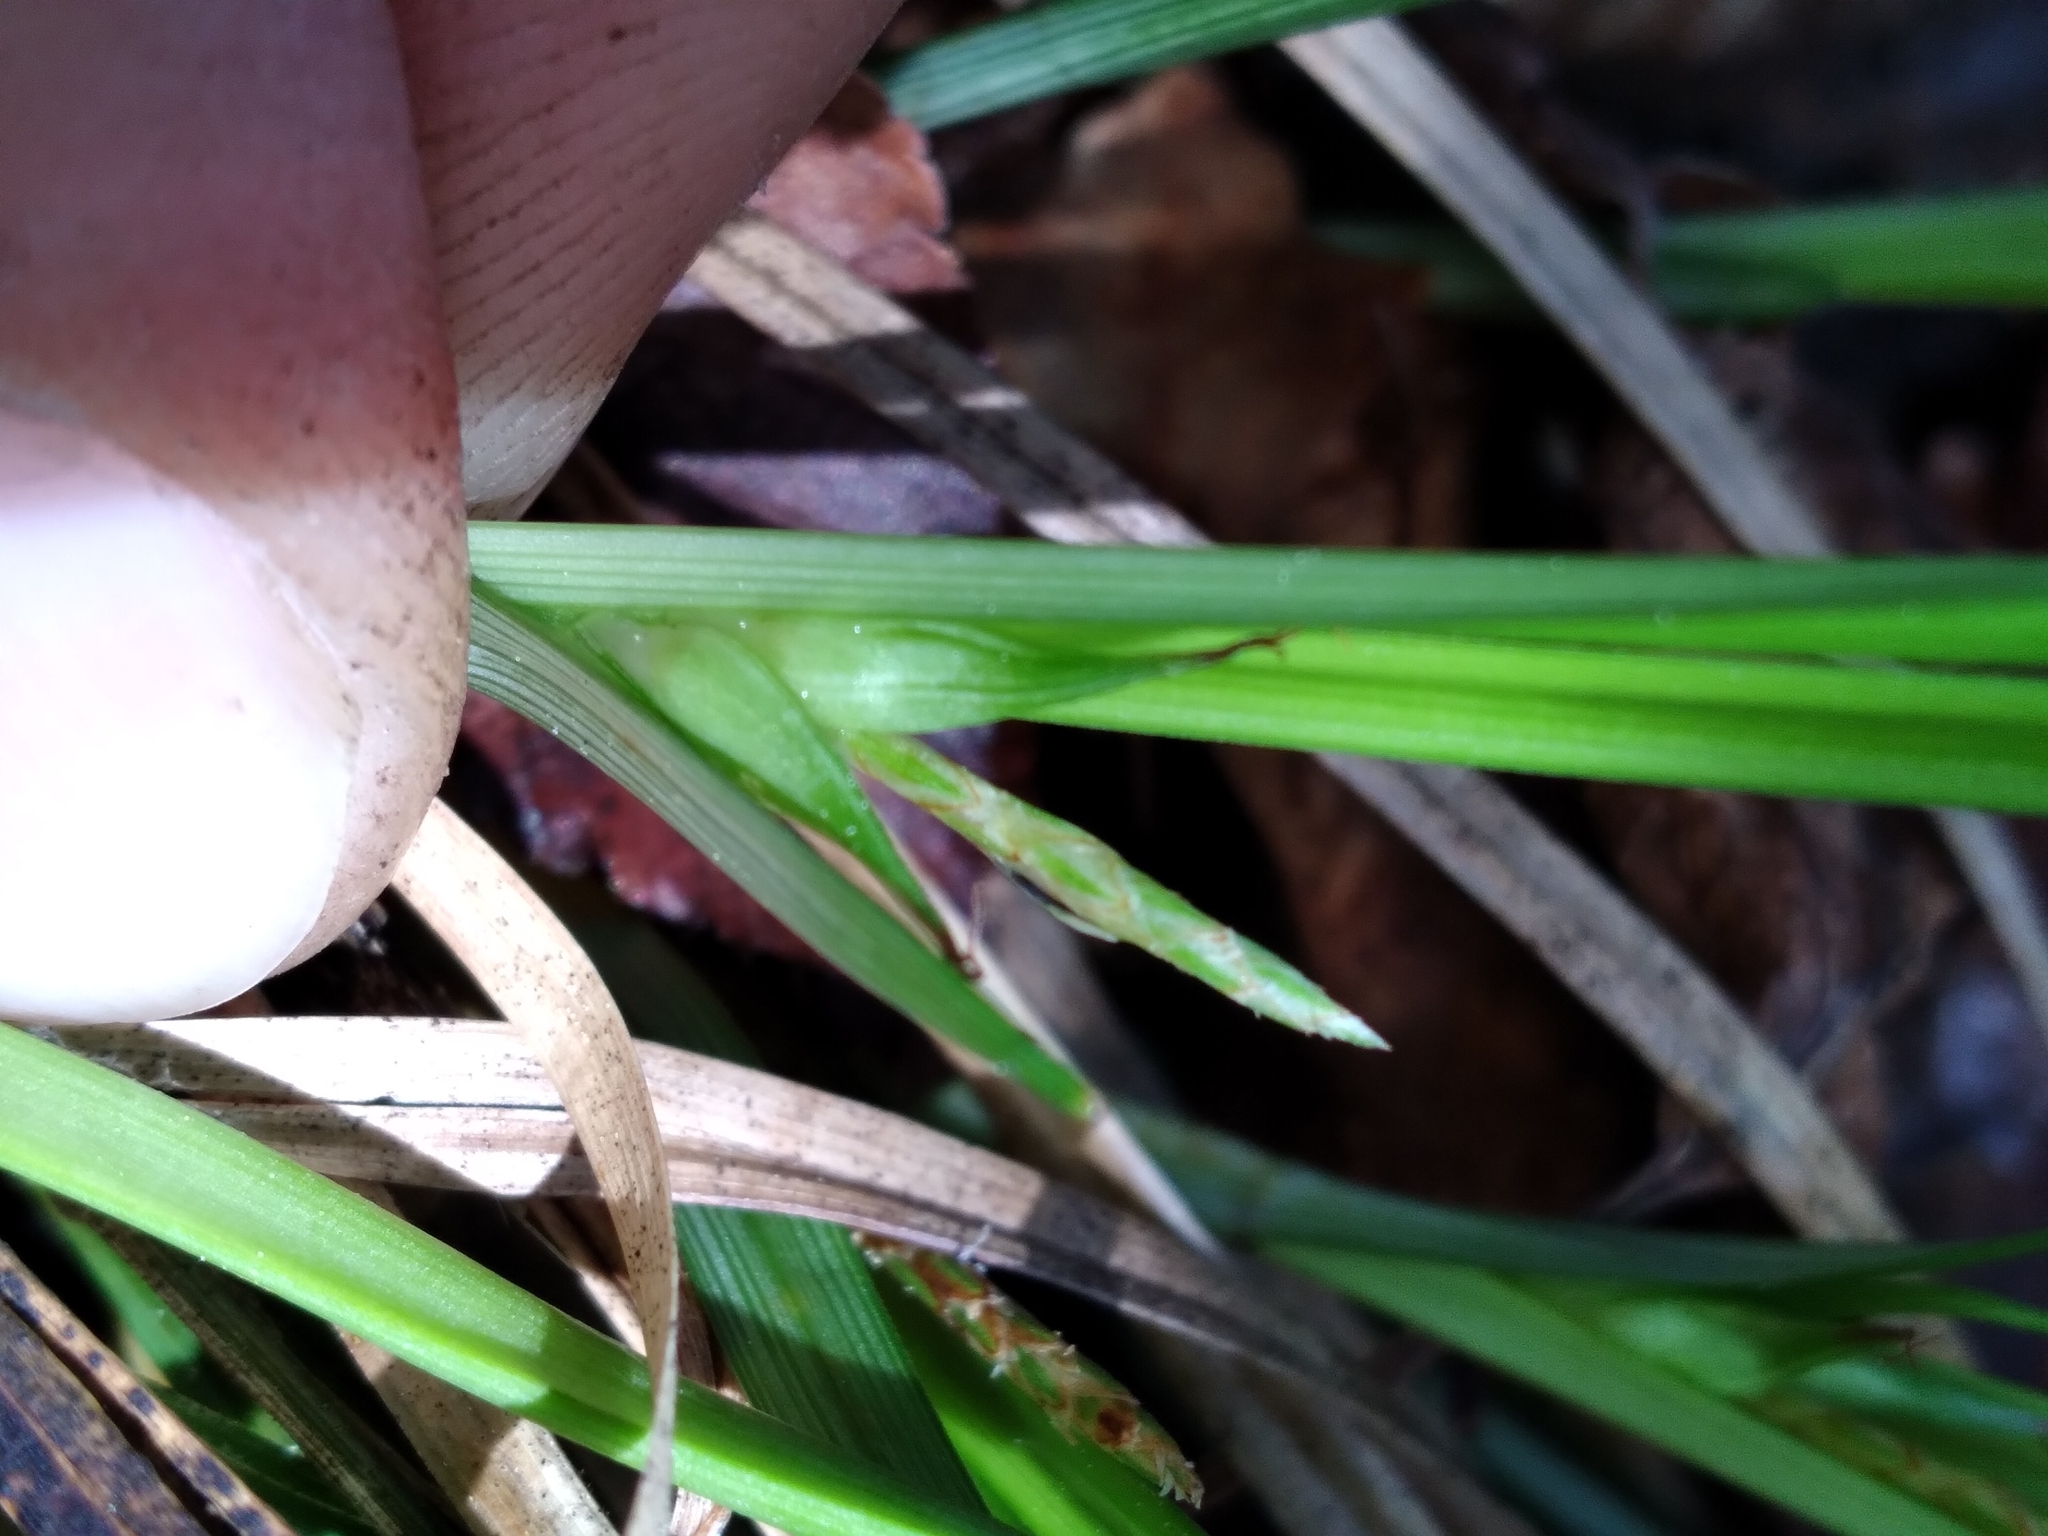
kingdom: Plantae
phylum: Tracheophyta
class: Liliopsida
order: Poales
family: Cyperaceae
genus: Carex
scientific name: Carex superata
